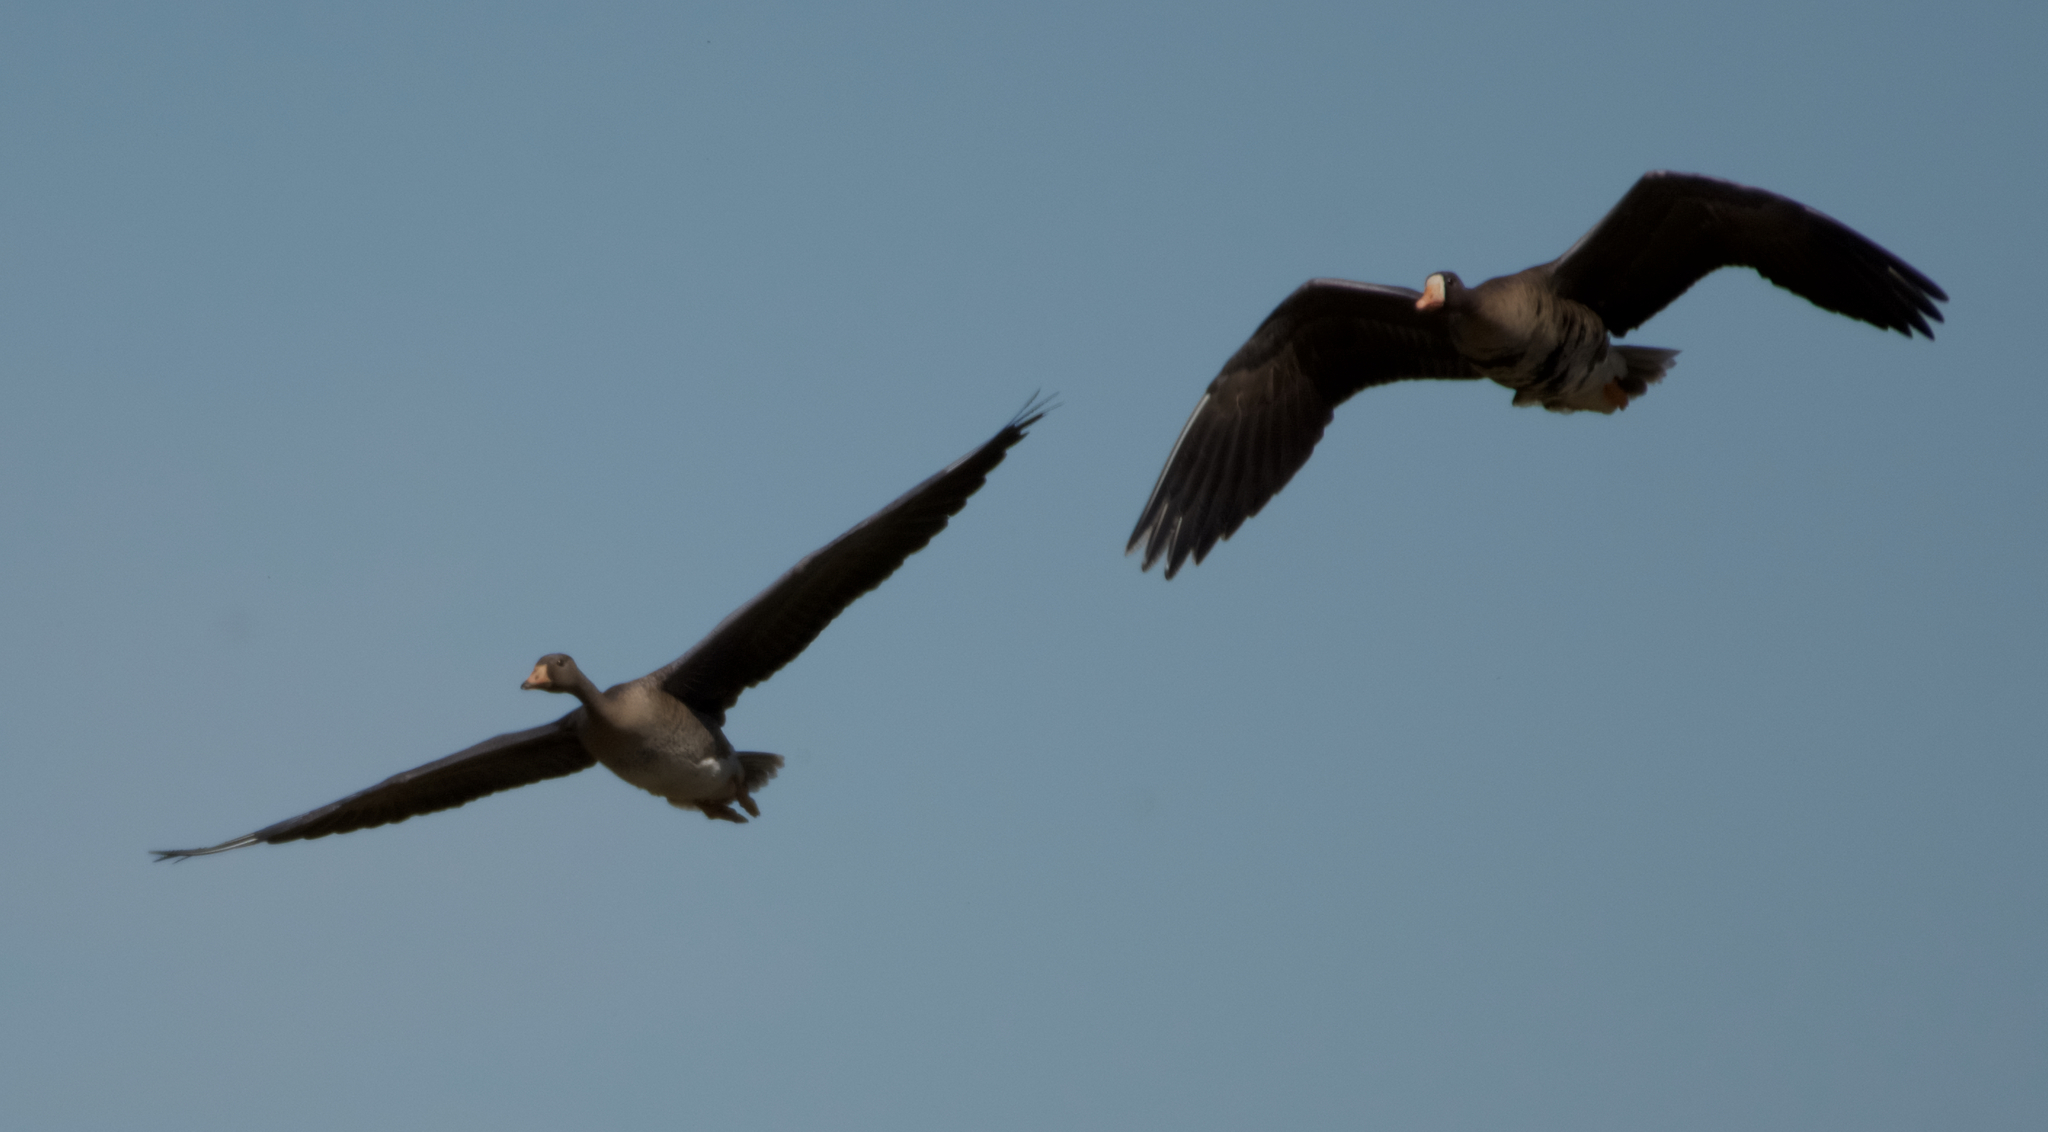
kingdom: Animalia
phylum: Chordata
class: Aves
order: Anseriformes
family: Anatidae
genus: Anser
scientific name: Anser albifrons
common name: Greater white-fronted goose
